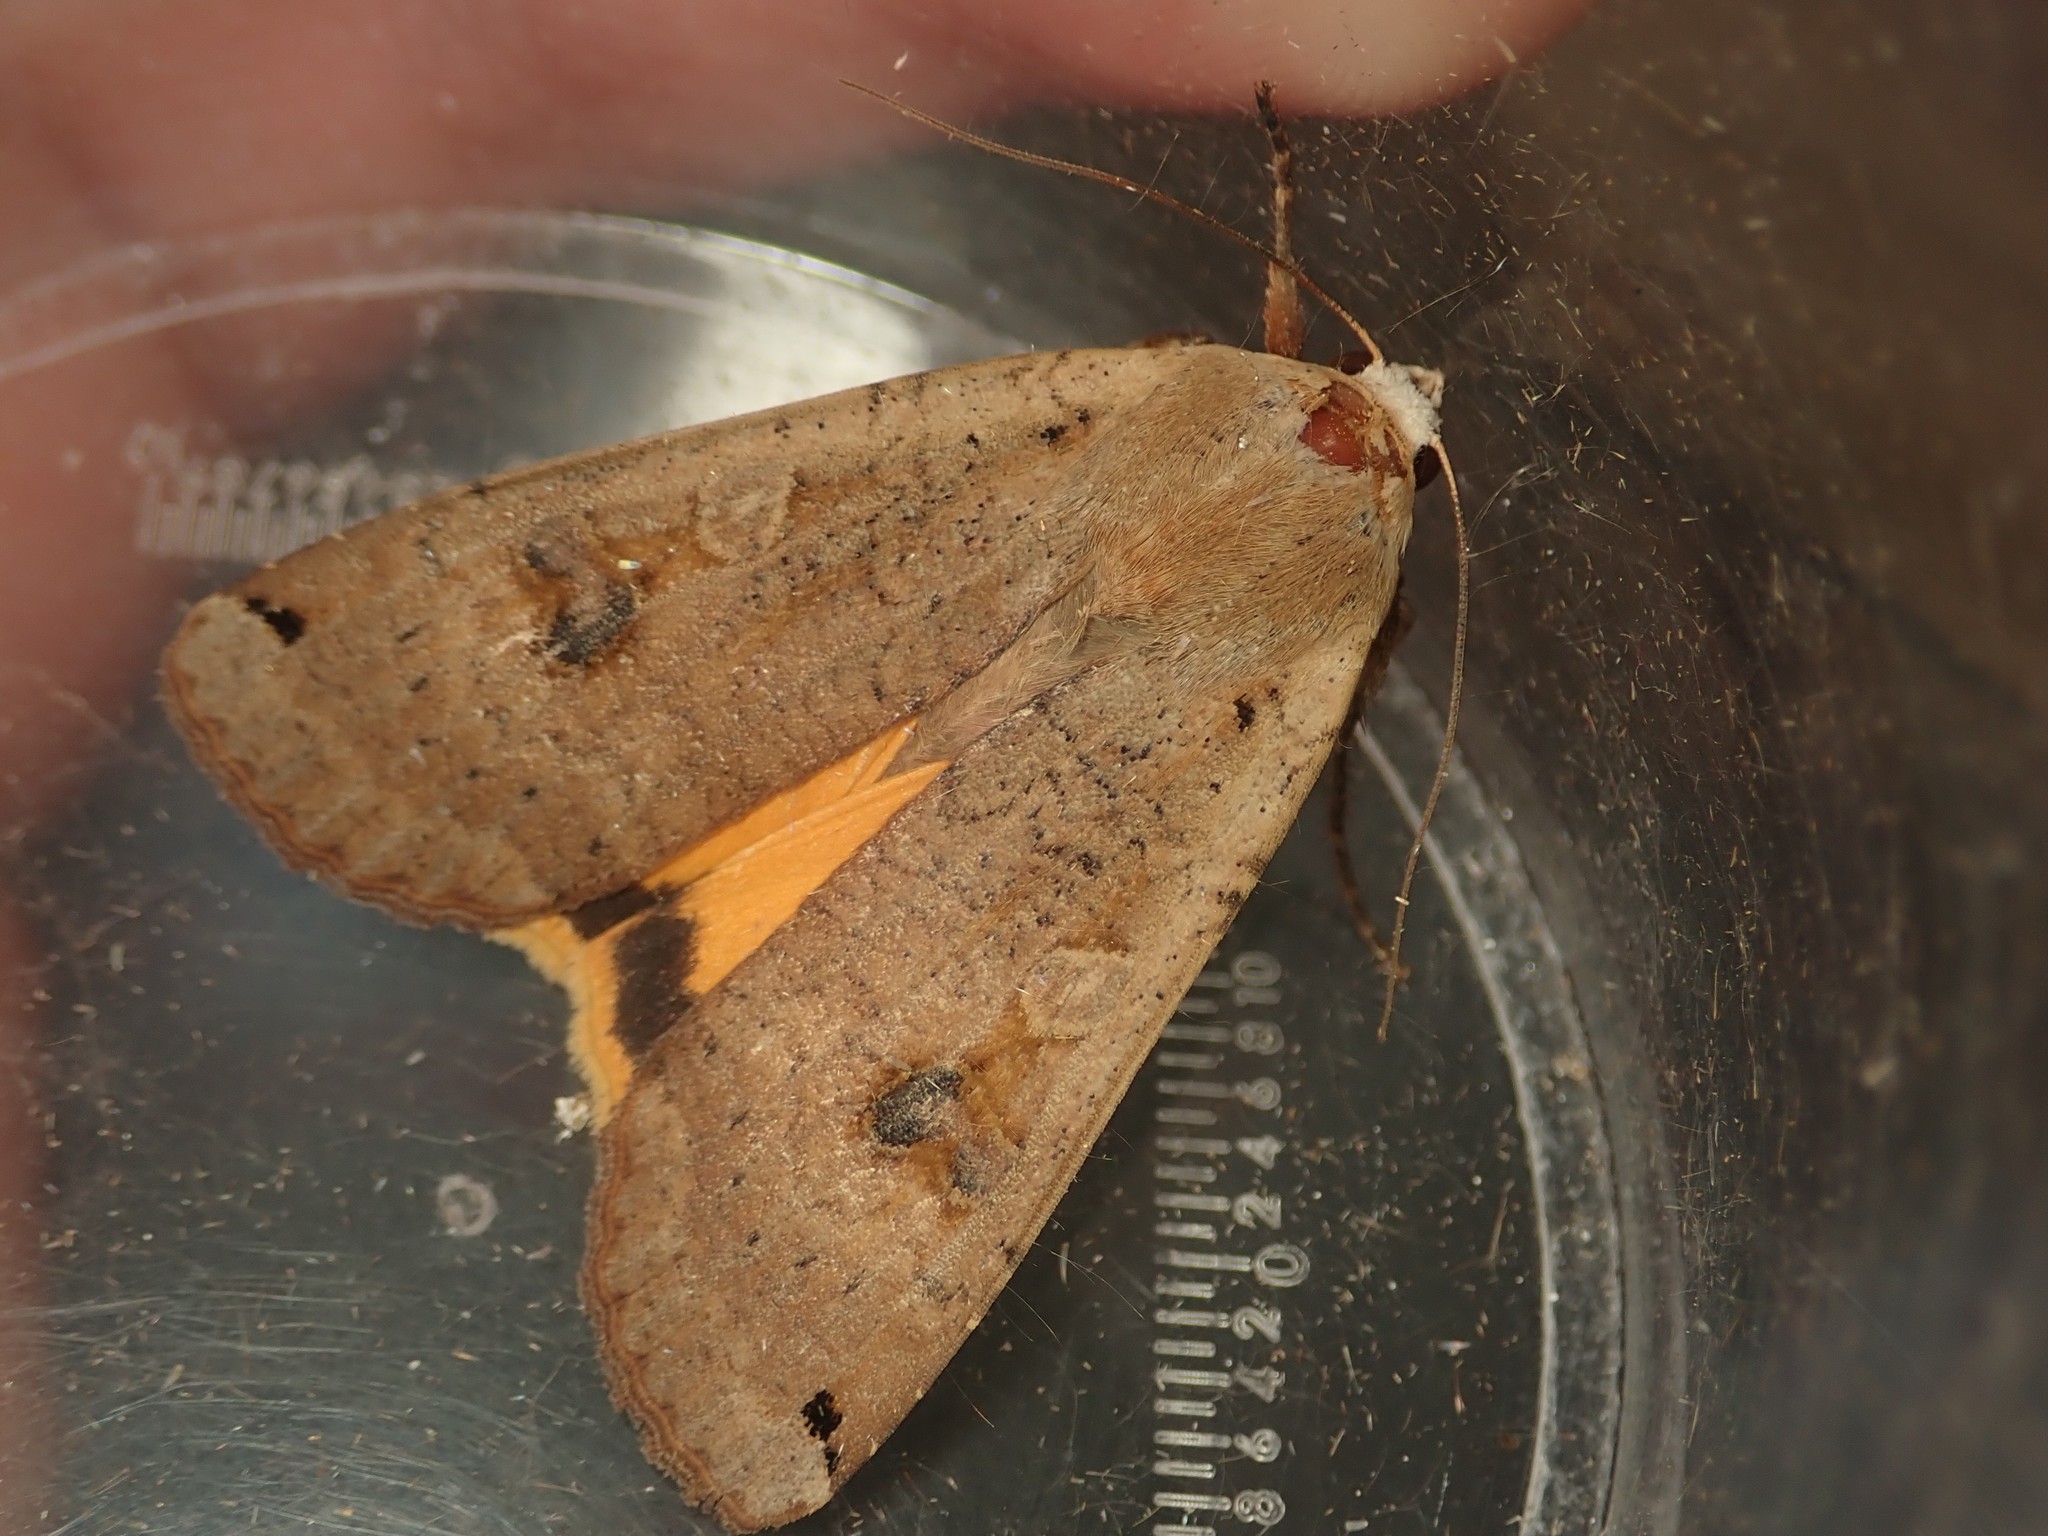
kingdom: Animalia
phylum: Arthropoda
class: Insecta
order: Lepidoptera
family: Noctuidae
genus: Noctua
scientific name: Noctua pronuba
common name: Large yellow underwing
